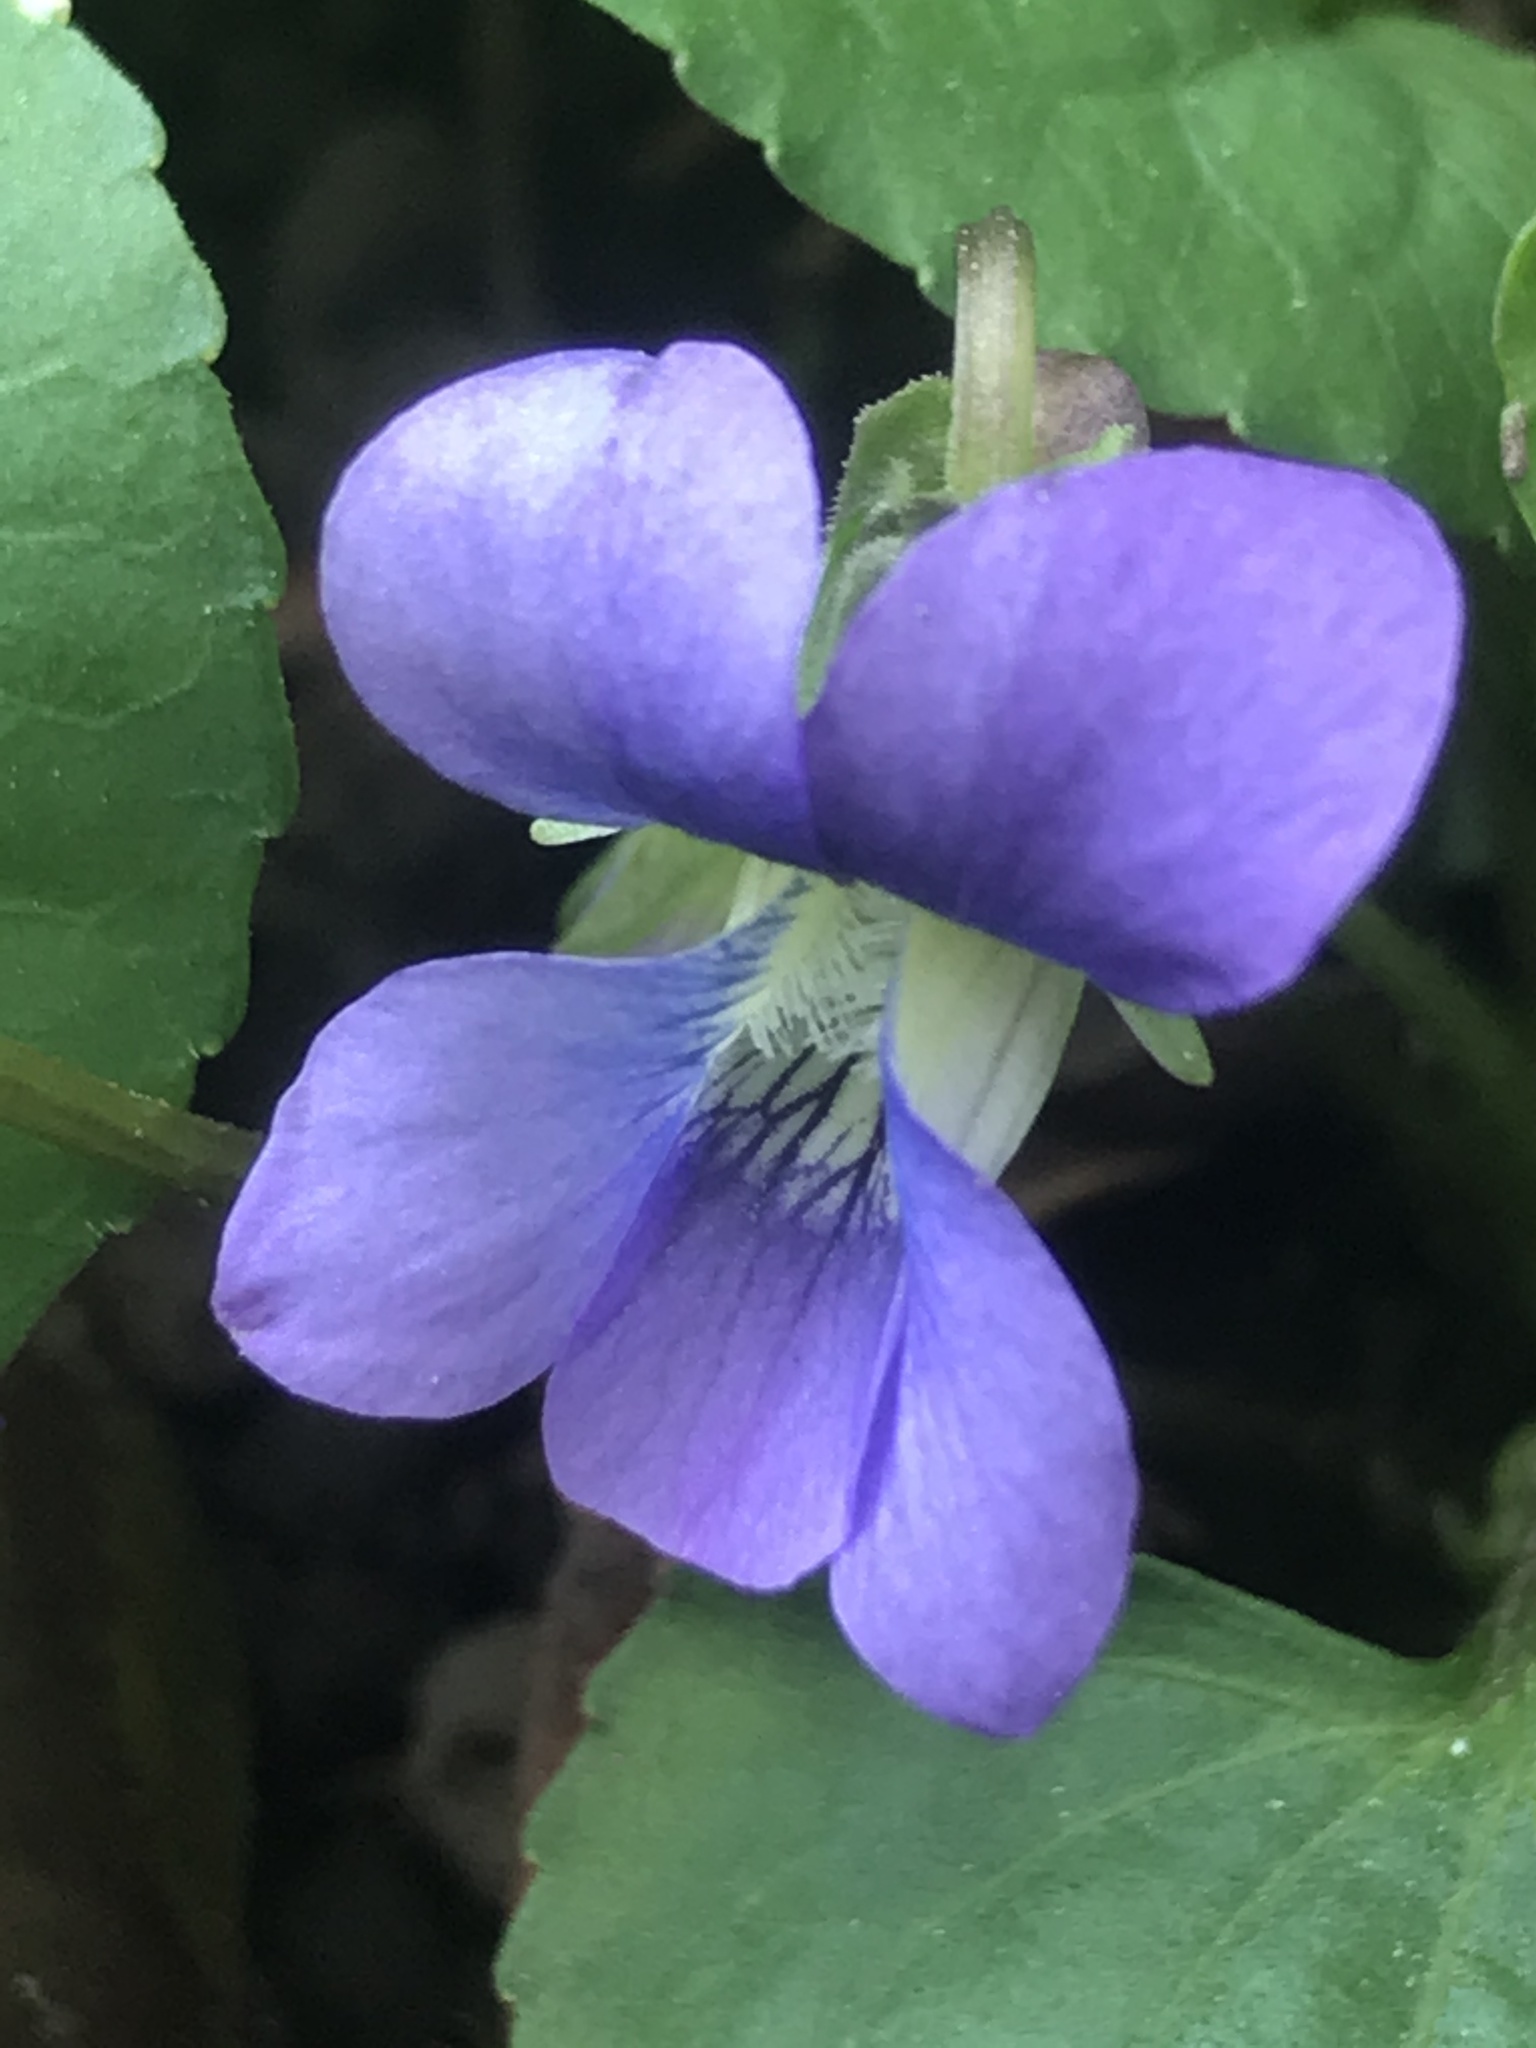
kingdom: Plantae
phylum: Tracheophyta
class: Magnoliopsida
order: Malpighiales
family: Violaceae
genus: Viola
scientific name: Viola sororia
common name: Dooryard violet
